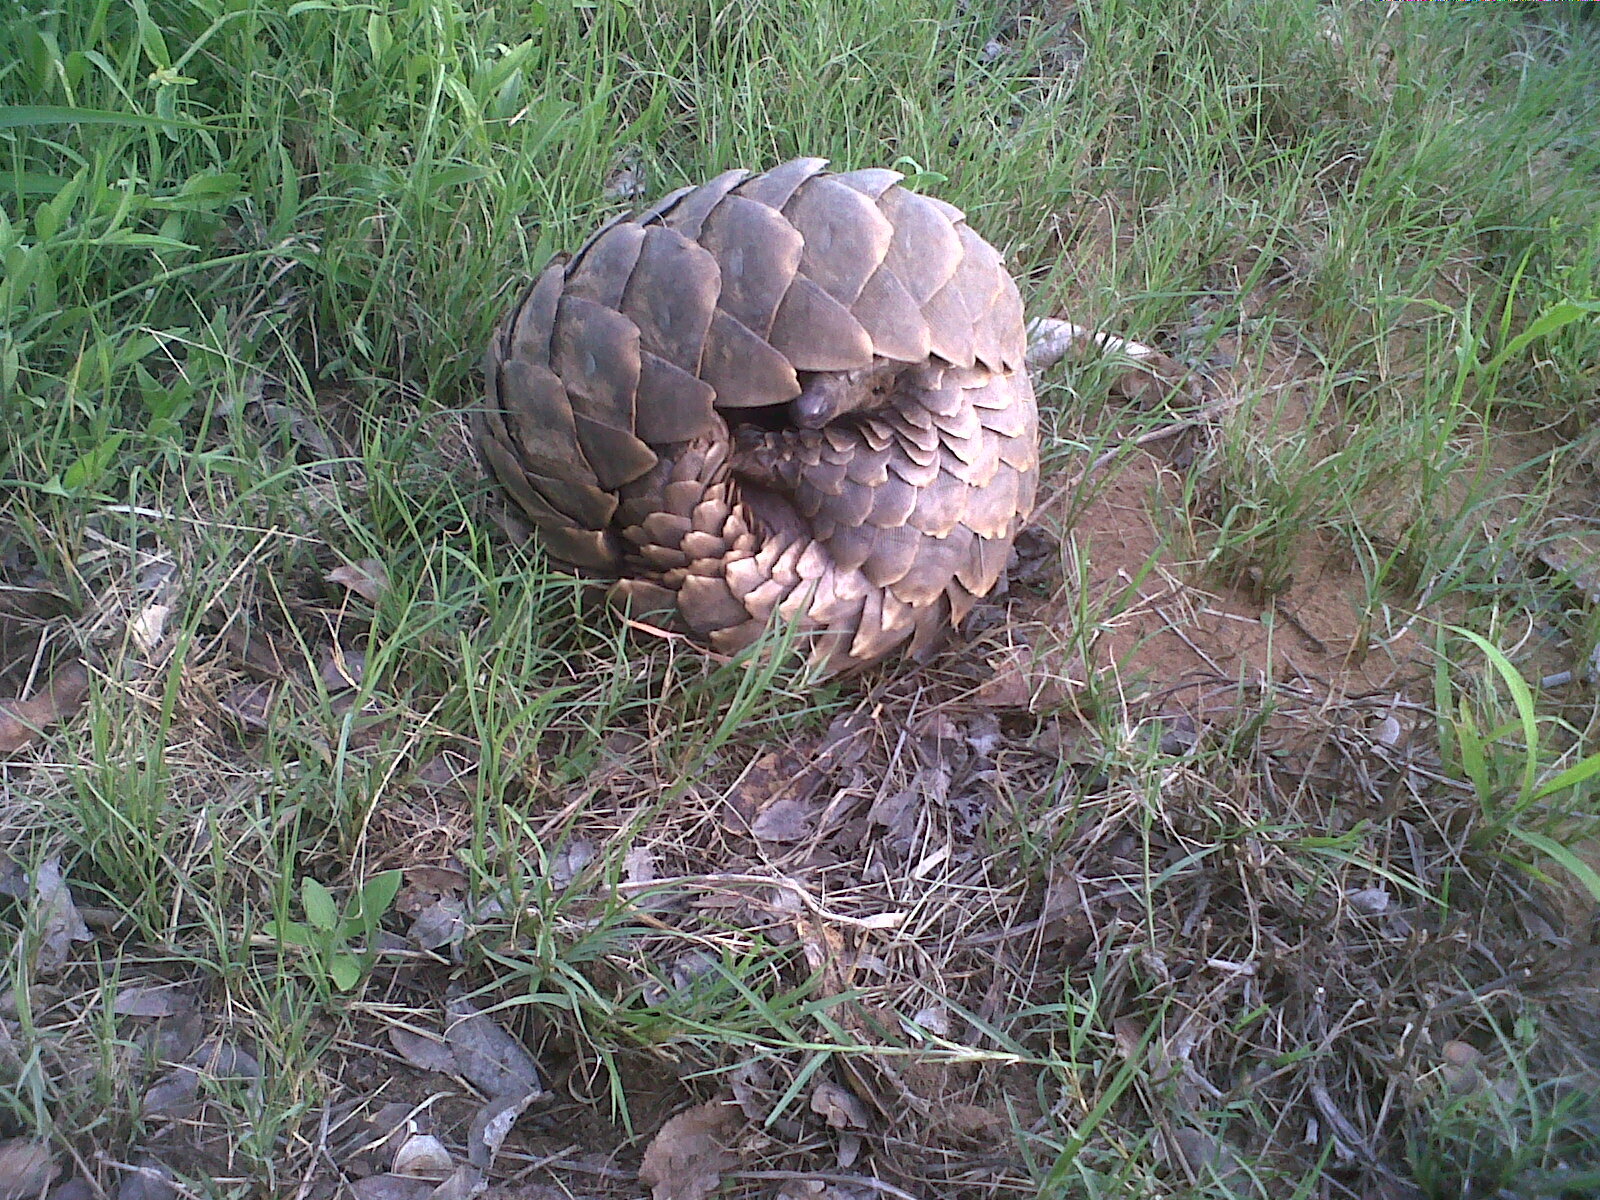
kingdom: Animalia
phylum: Chordata
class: Mammalia
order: Pholidota
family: Manidae
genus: Manis
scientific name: Manis temminckii
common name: Ground pangolin
